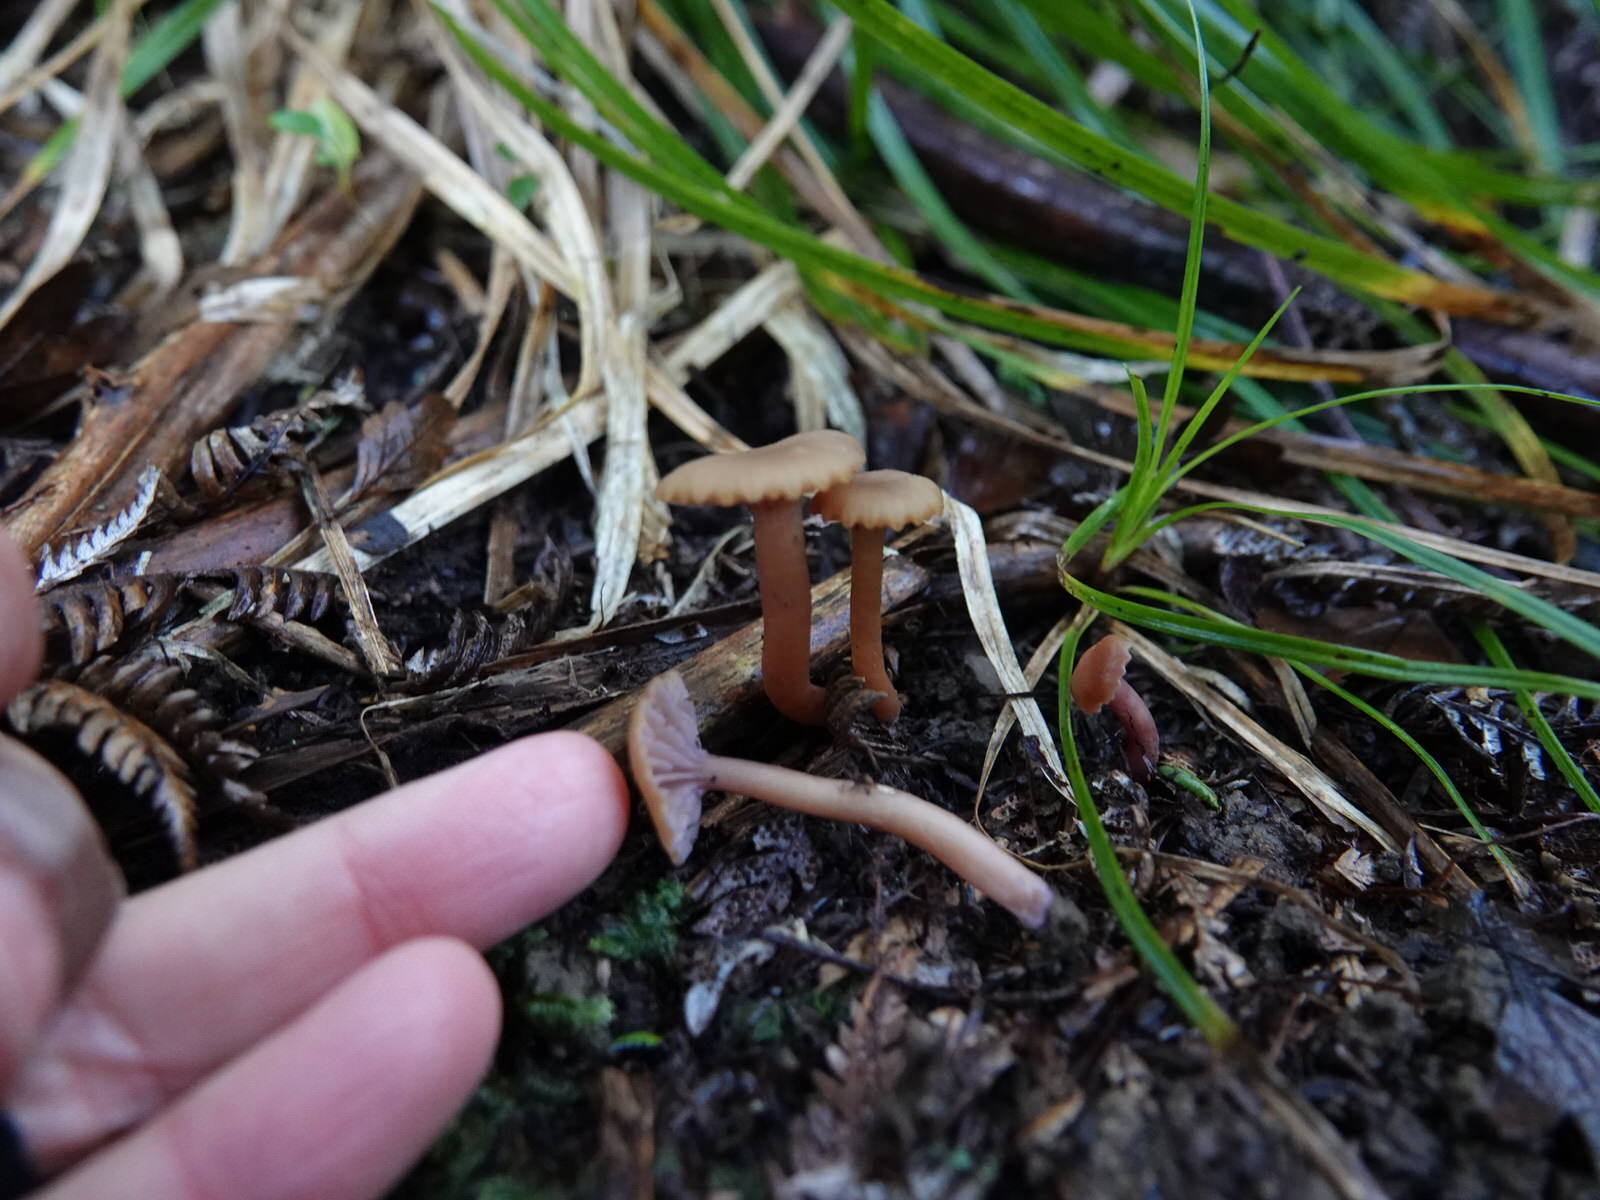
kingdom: Fungi
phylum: Basidiomycota
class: Agaricomycetes
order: Agaricales
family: Hygrophoraceae
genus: Hygrocybe
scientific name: Hygrocybe lilaceolamellata
